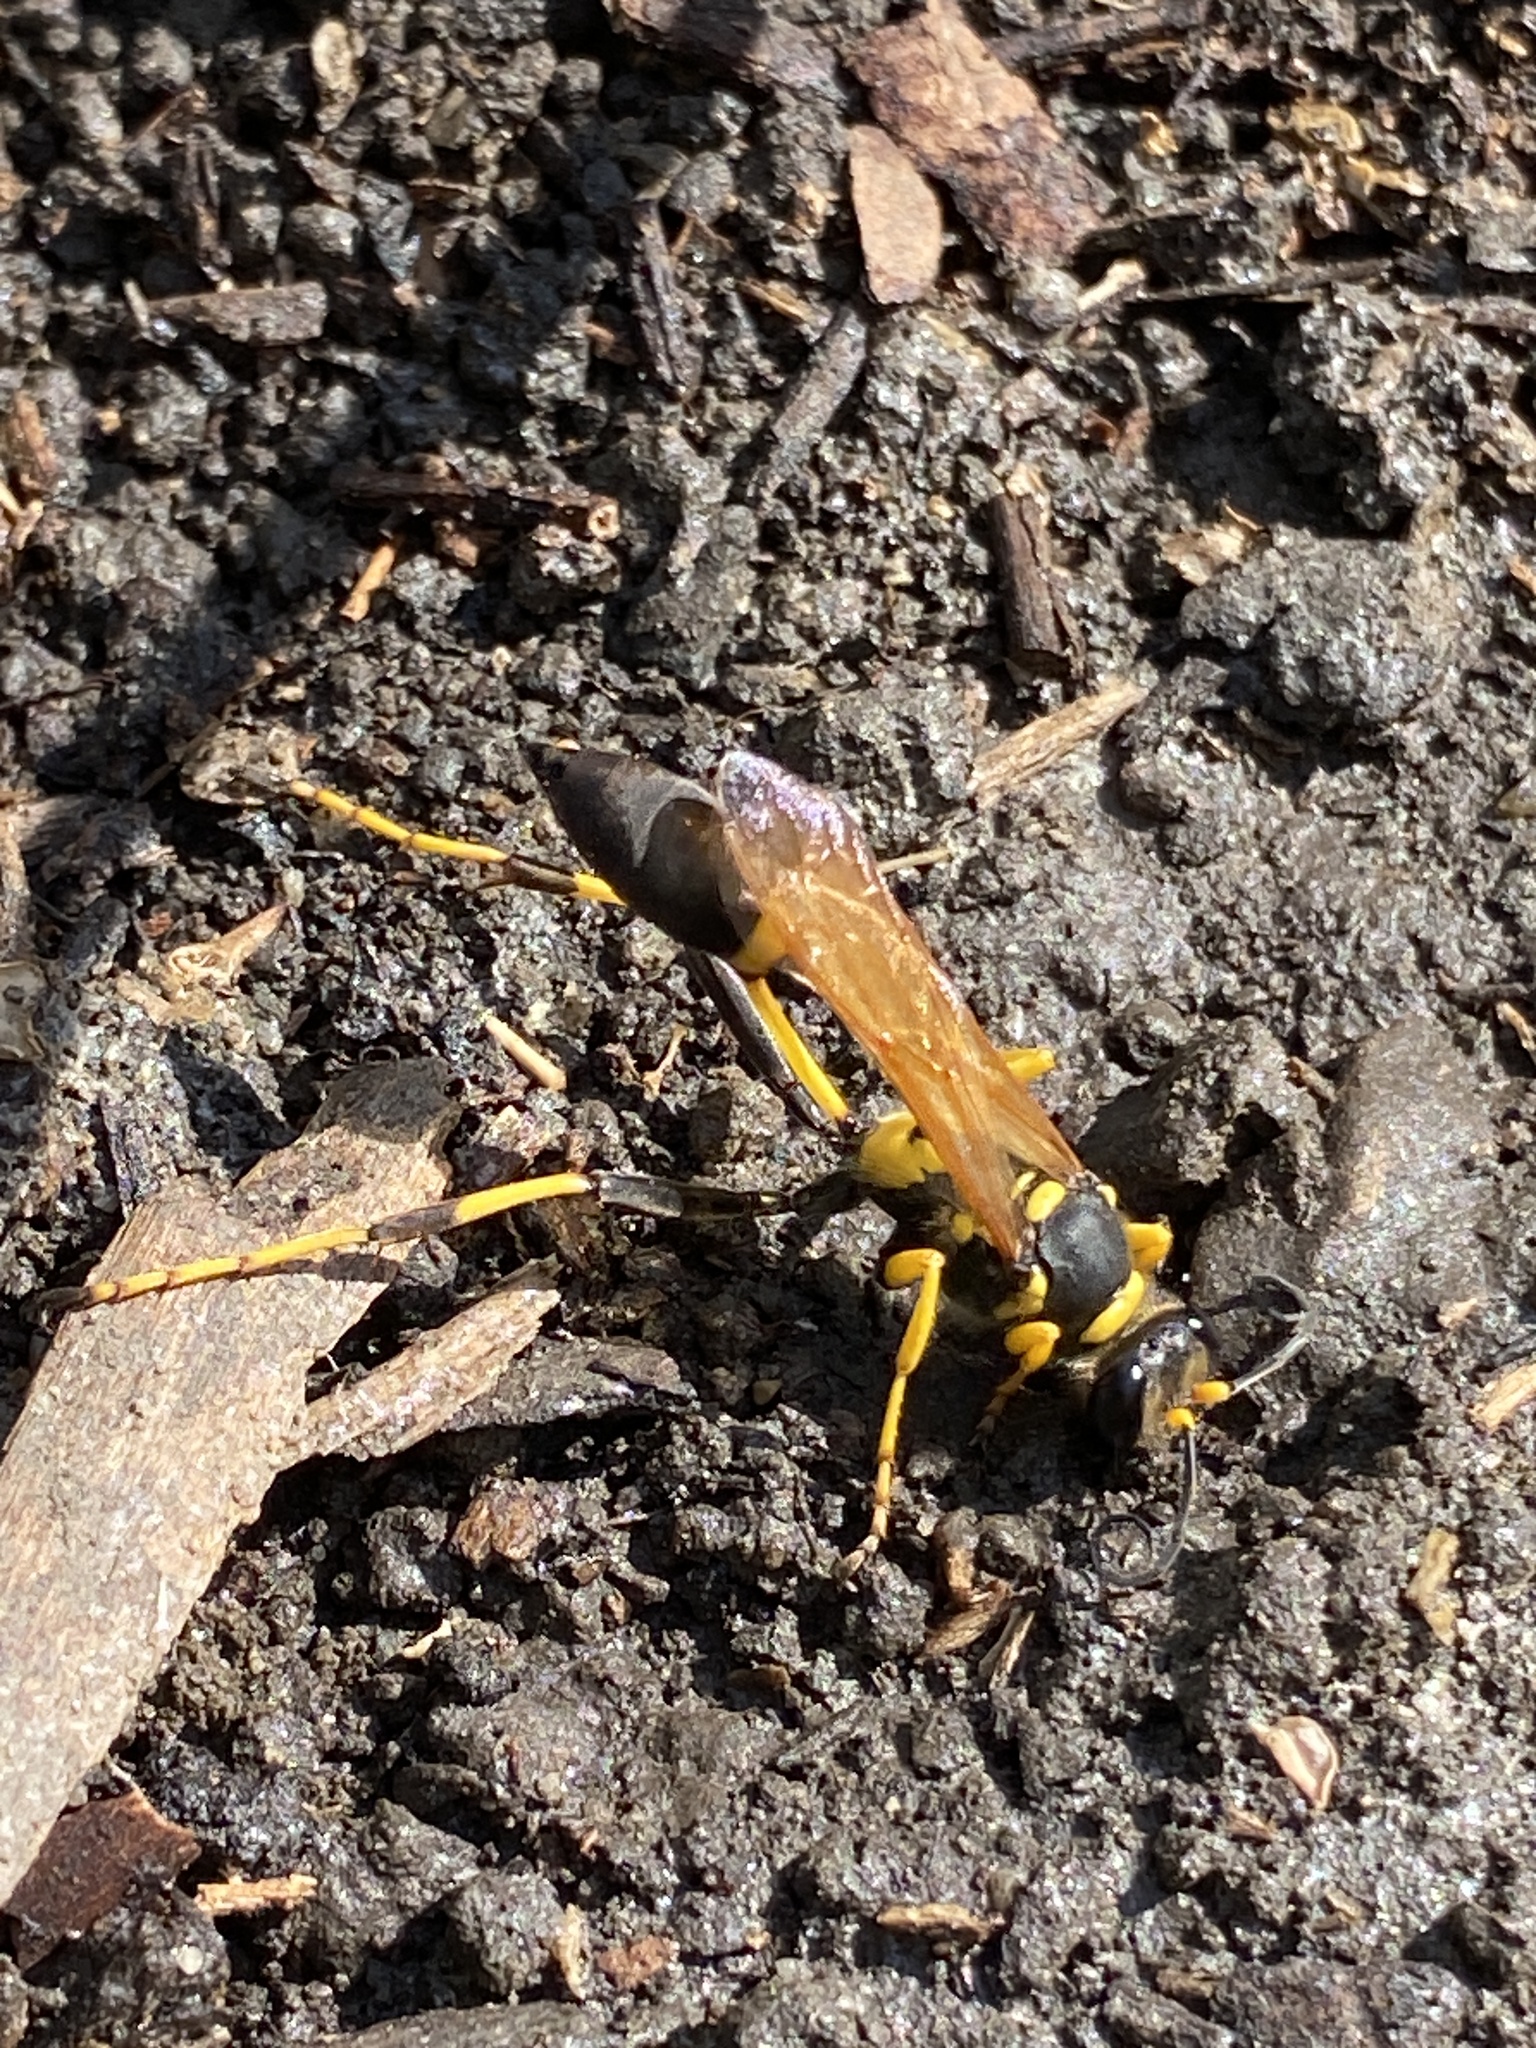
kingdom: Animalia
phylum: Arthropoda
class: Insecta
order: Hymenoptera
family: Sphecidae
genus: Sceliphron
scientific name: Sceliphron caementarium
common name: Mud dauber
